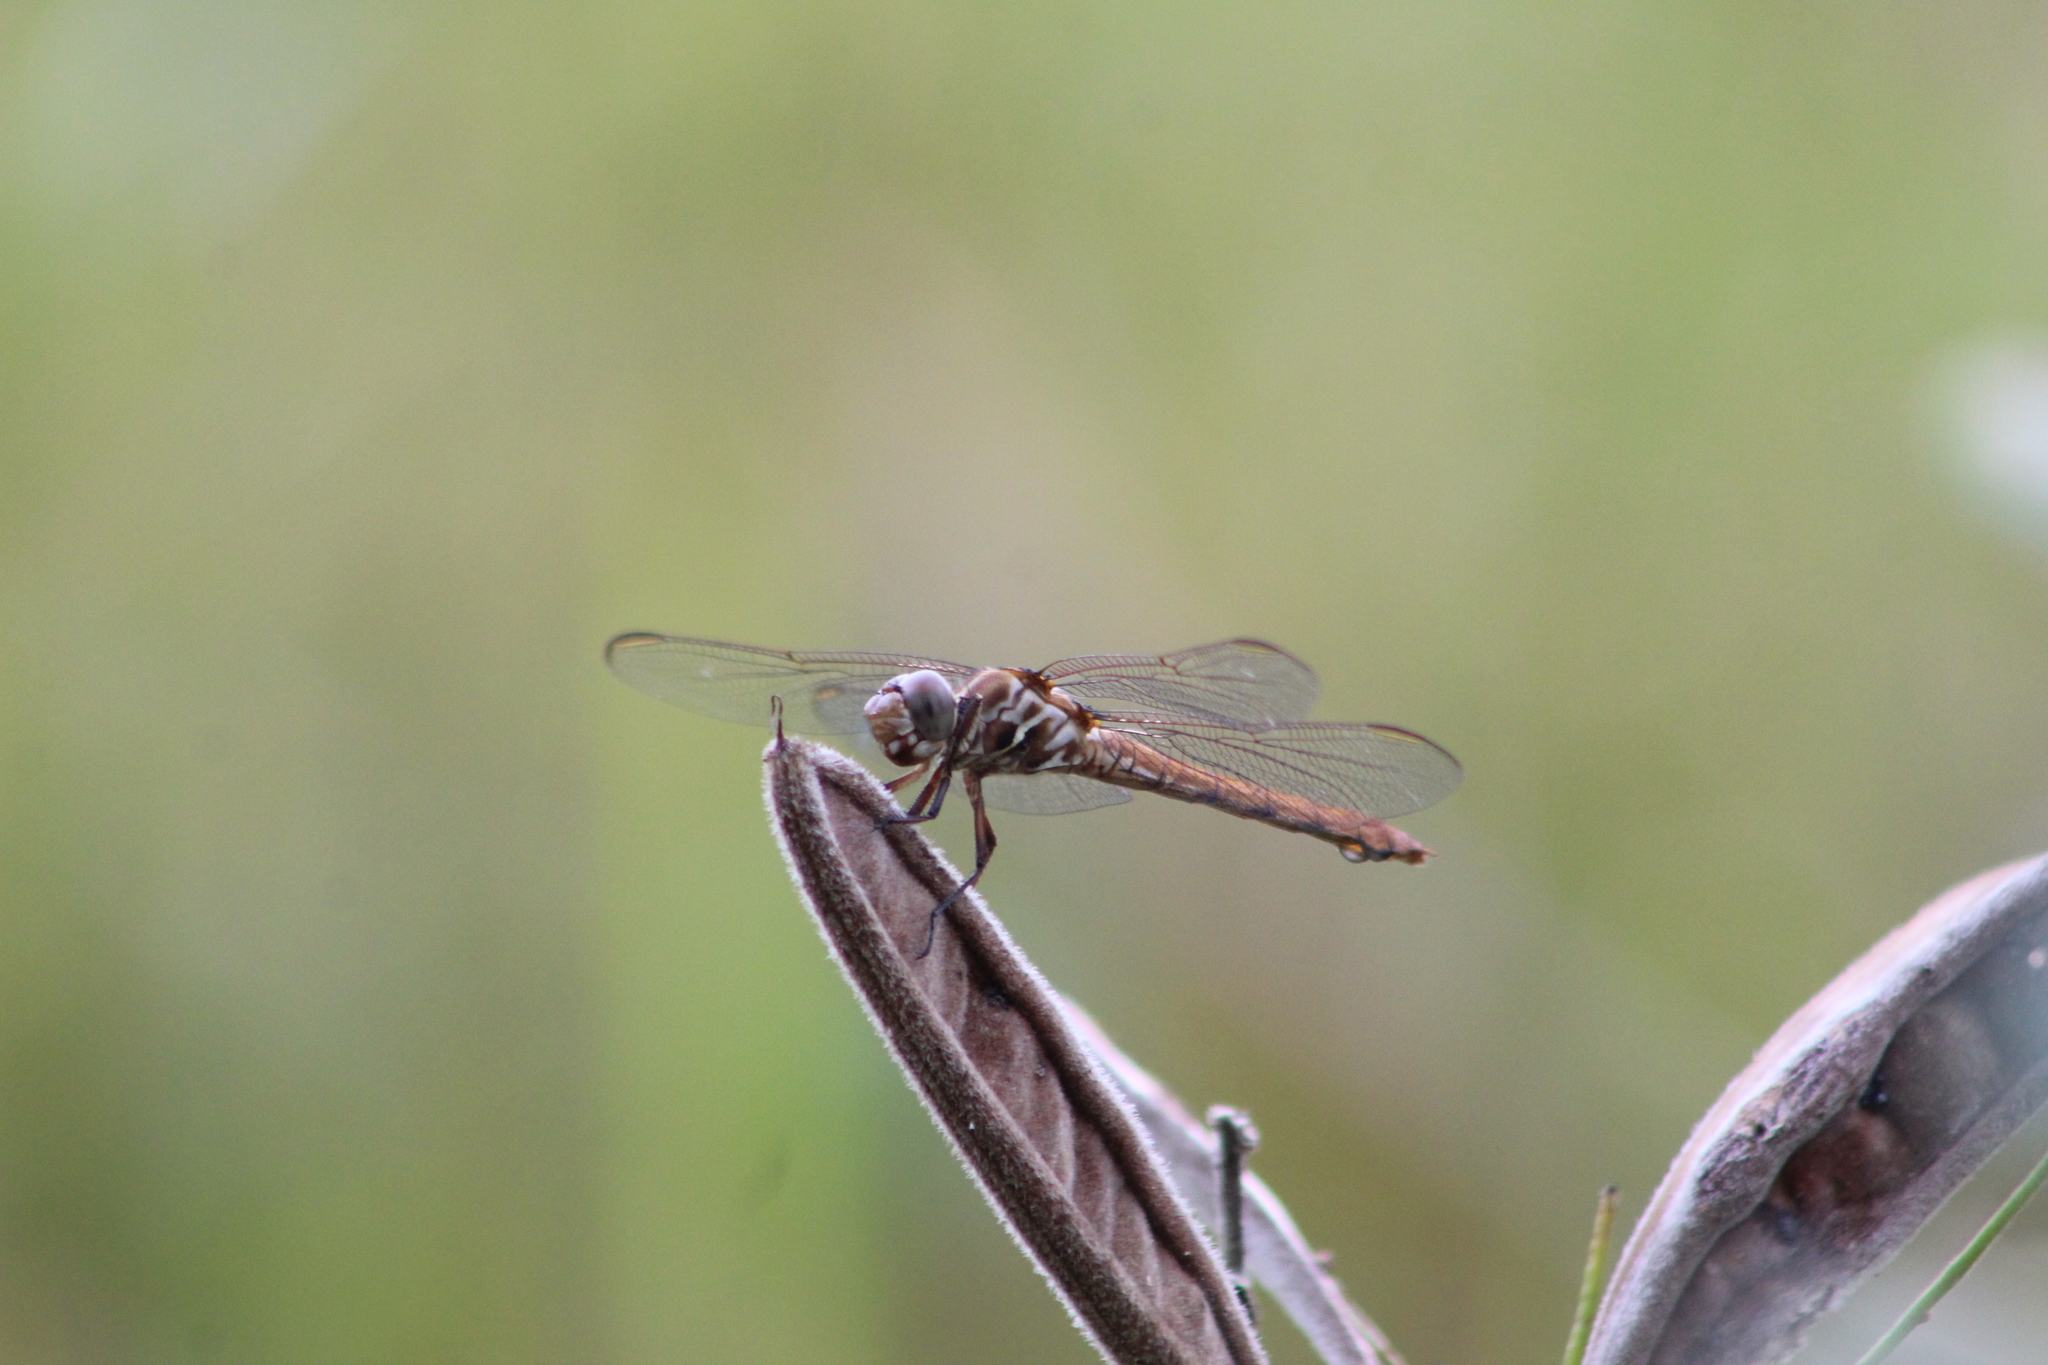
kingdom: Animalia
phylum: Arthropoda
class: Insecta
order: Odonata
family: Libellulidae
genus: Orthemis
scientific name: Orthemis ferruginea
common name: Roseate skimmer
